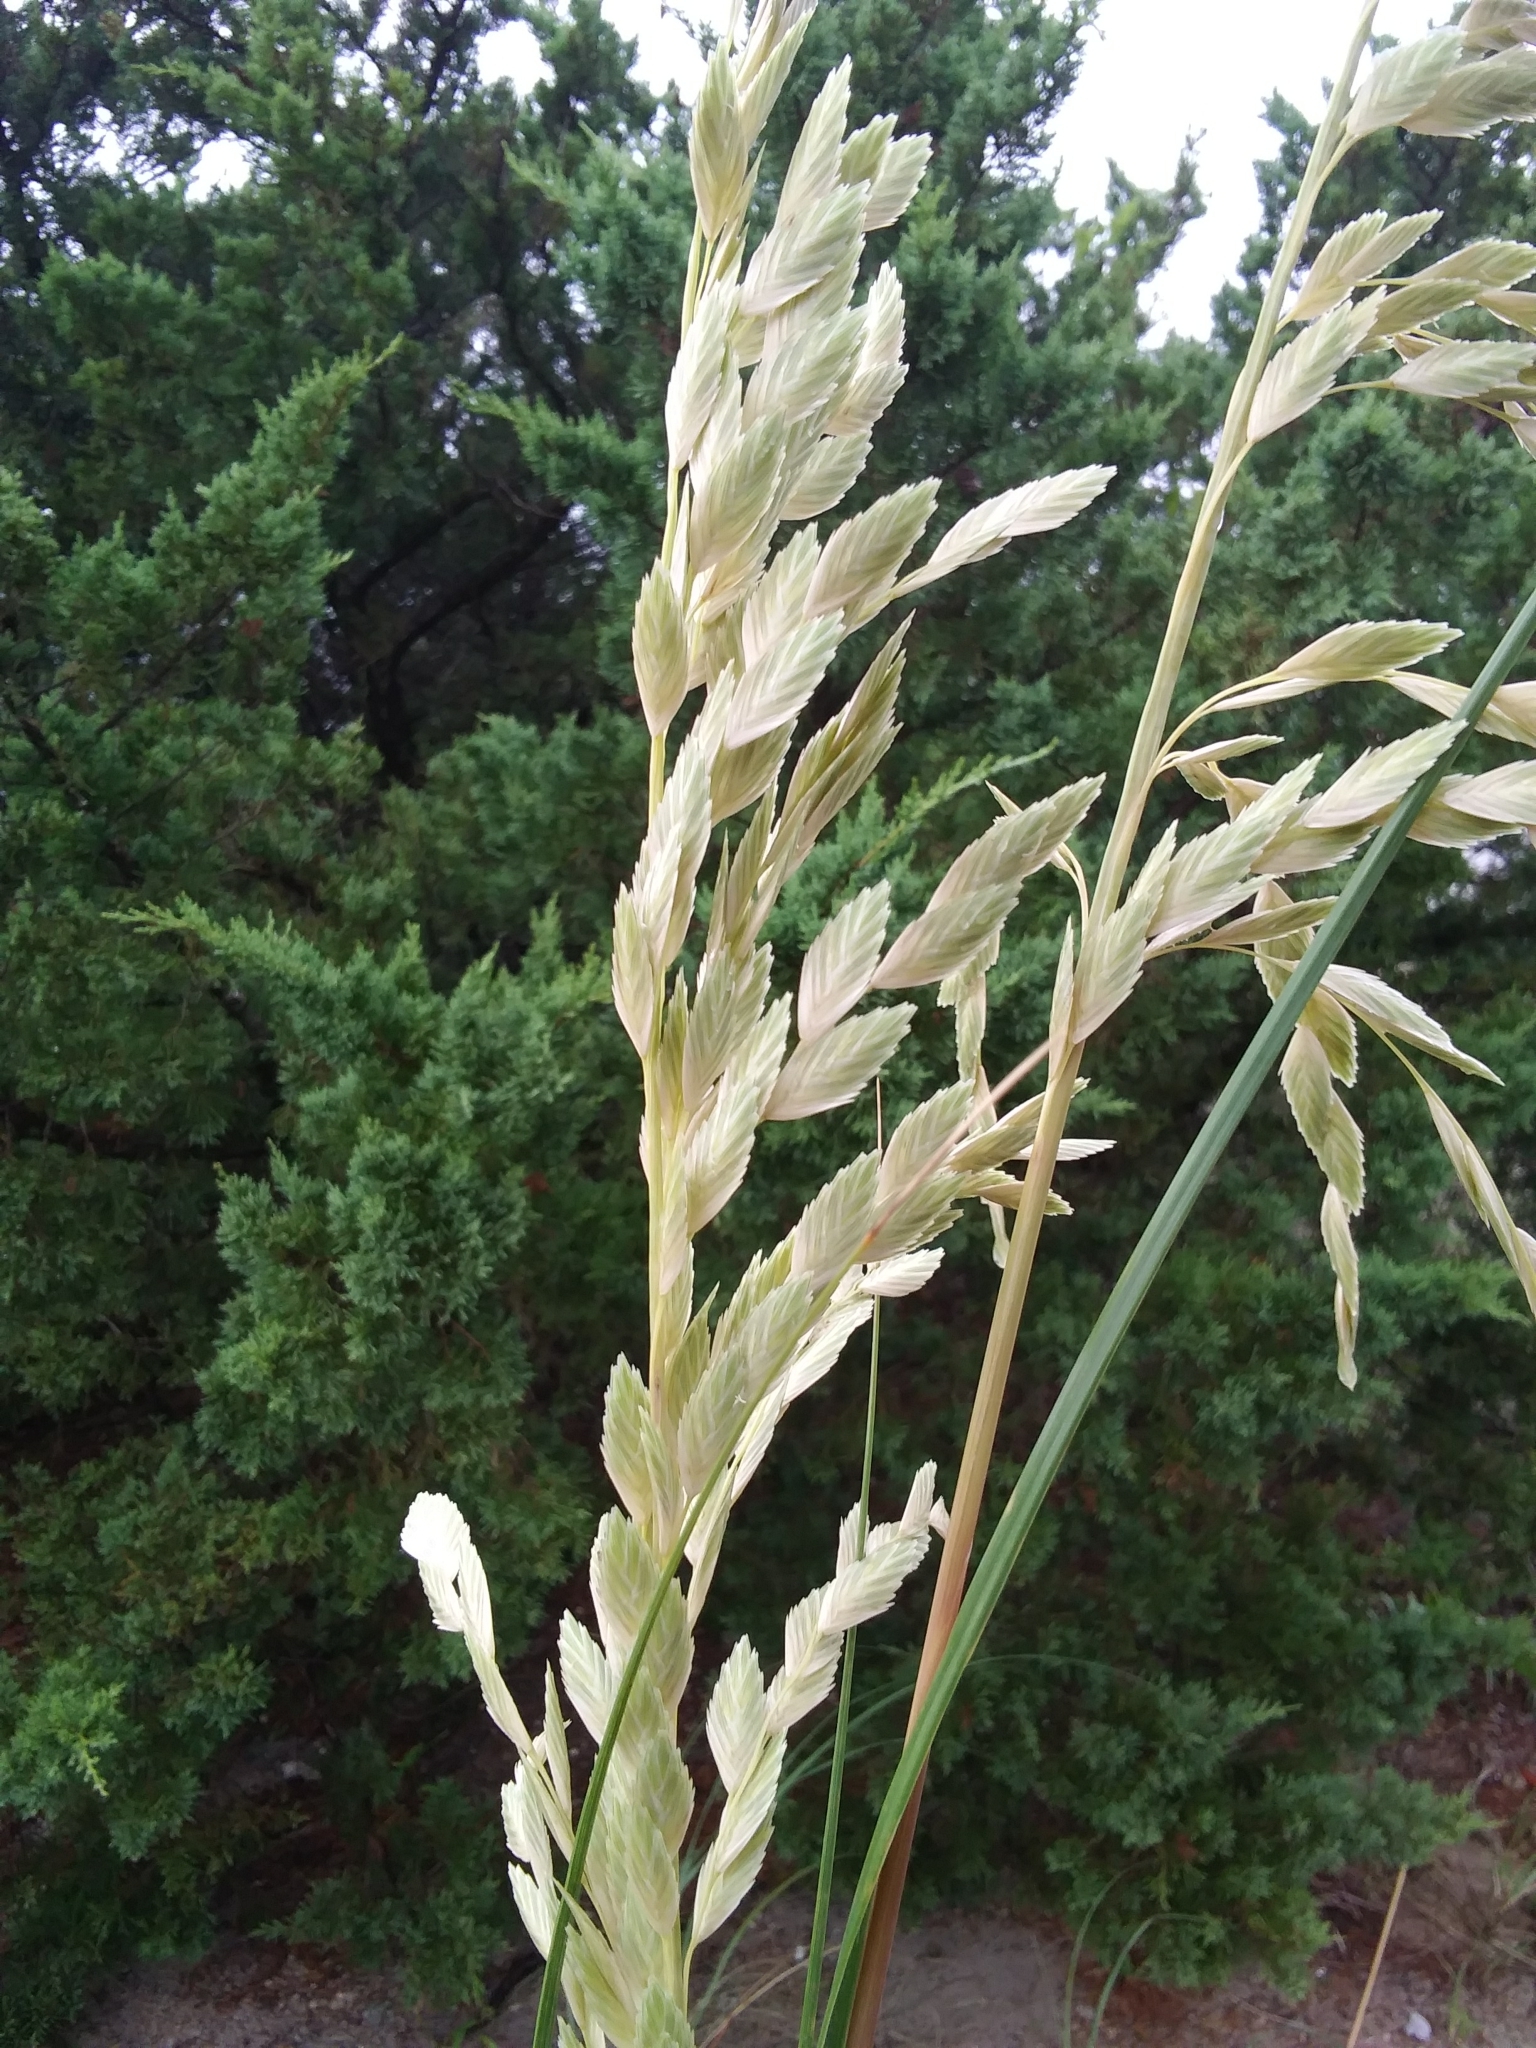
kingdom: Plantae
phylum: Tracheophyta
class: Liliopsida
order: Poales
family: Poaceae
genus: Uniola
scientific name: Uniola paniculata
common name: Seaside-oats
